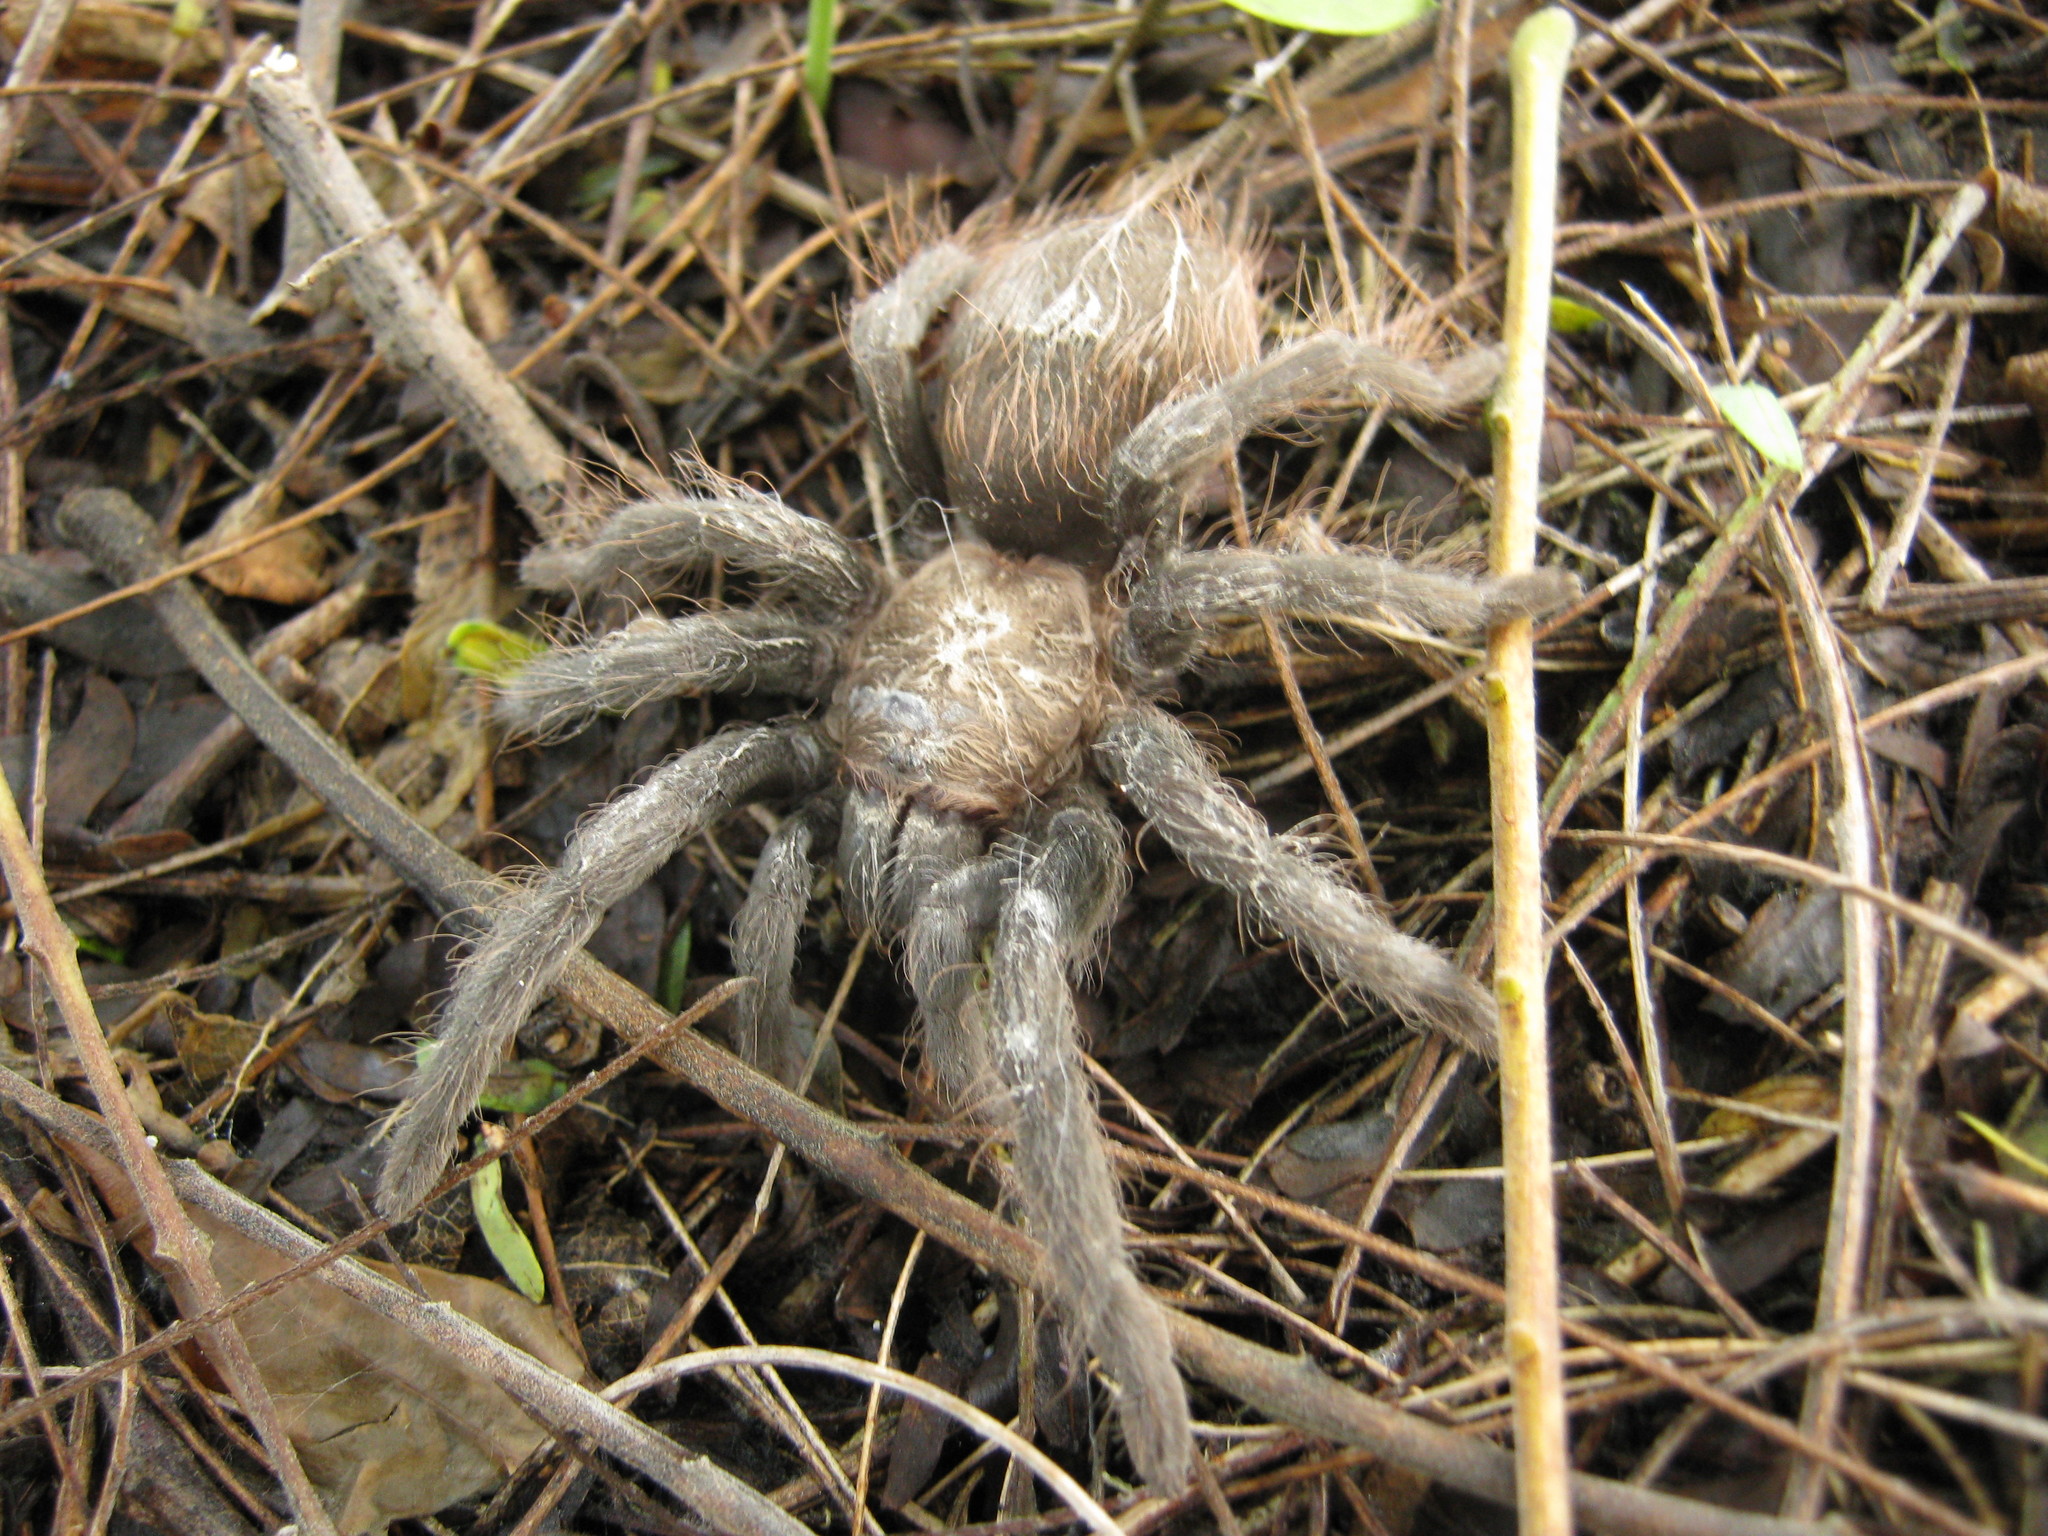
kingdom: Animalia
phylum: Arthropoda
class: Arachnida
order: Araneae
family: Theraphosidae
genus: Tliltocatl
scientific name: Tliltocatl epicureanus
